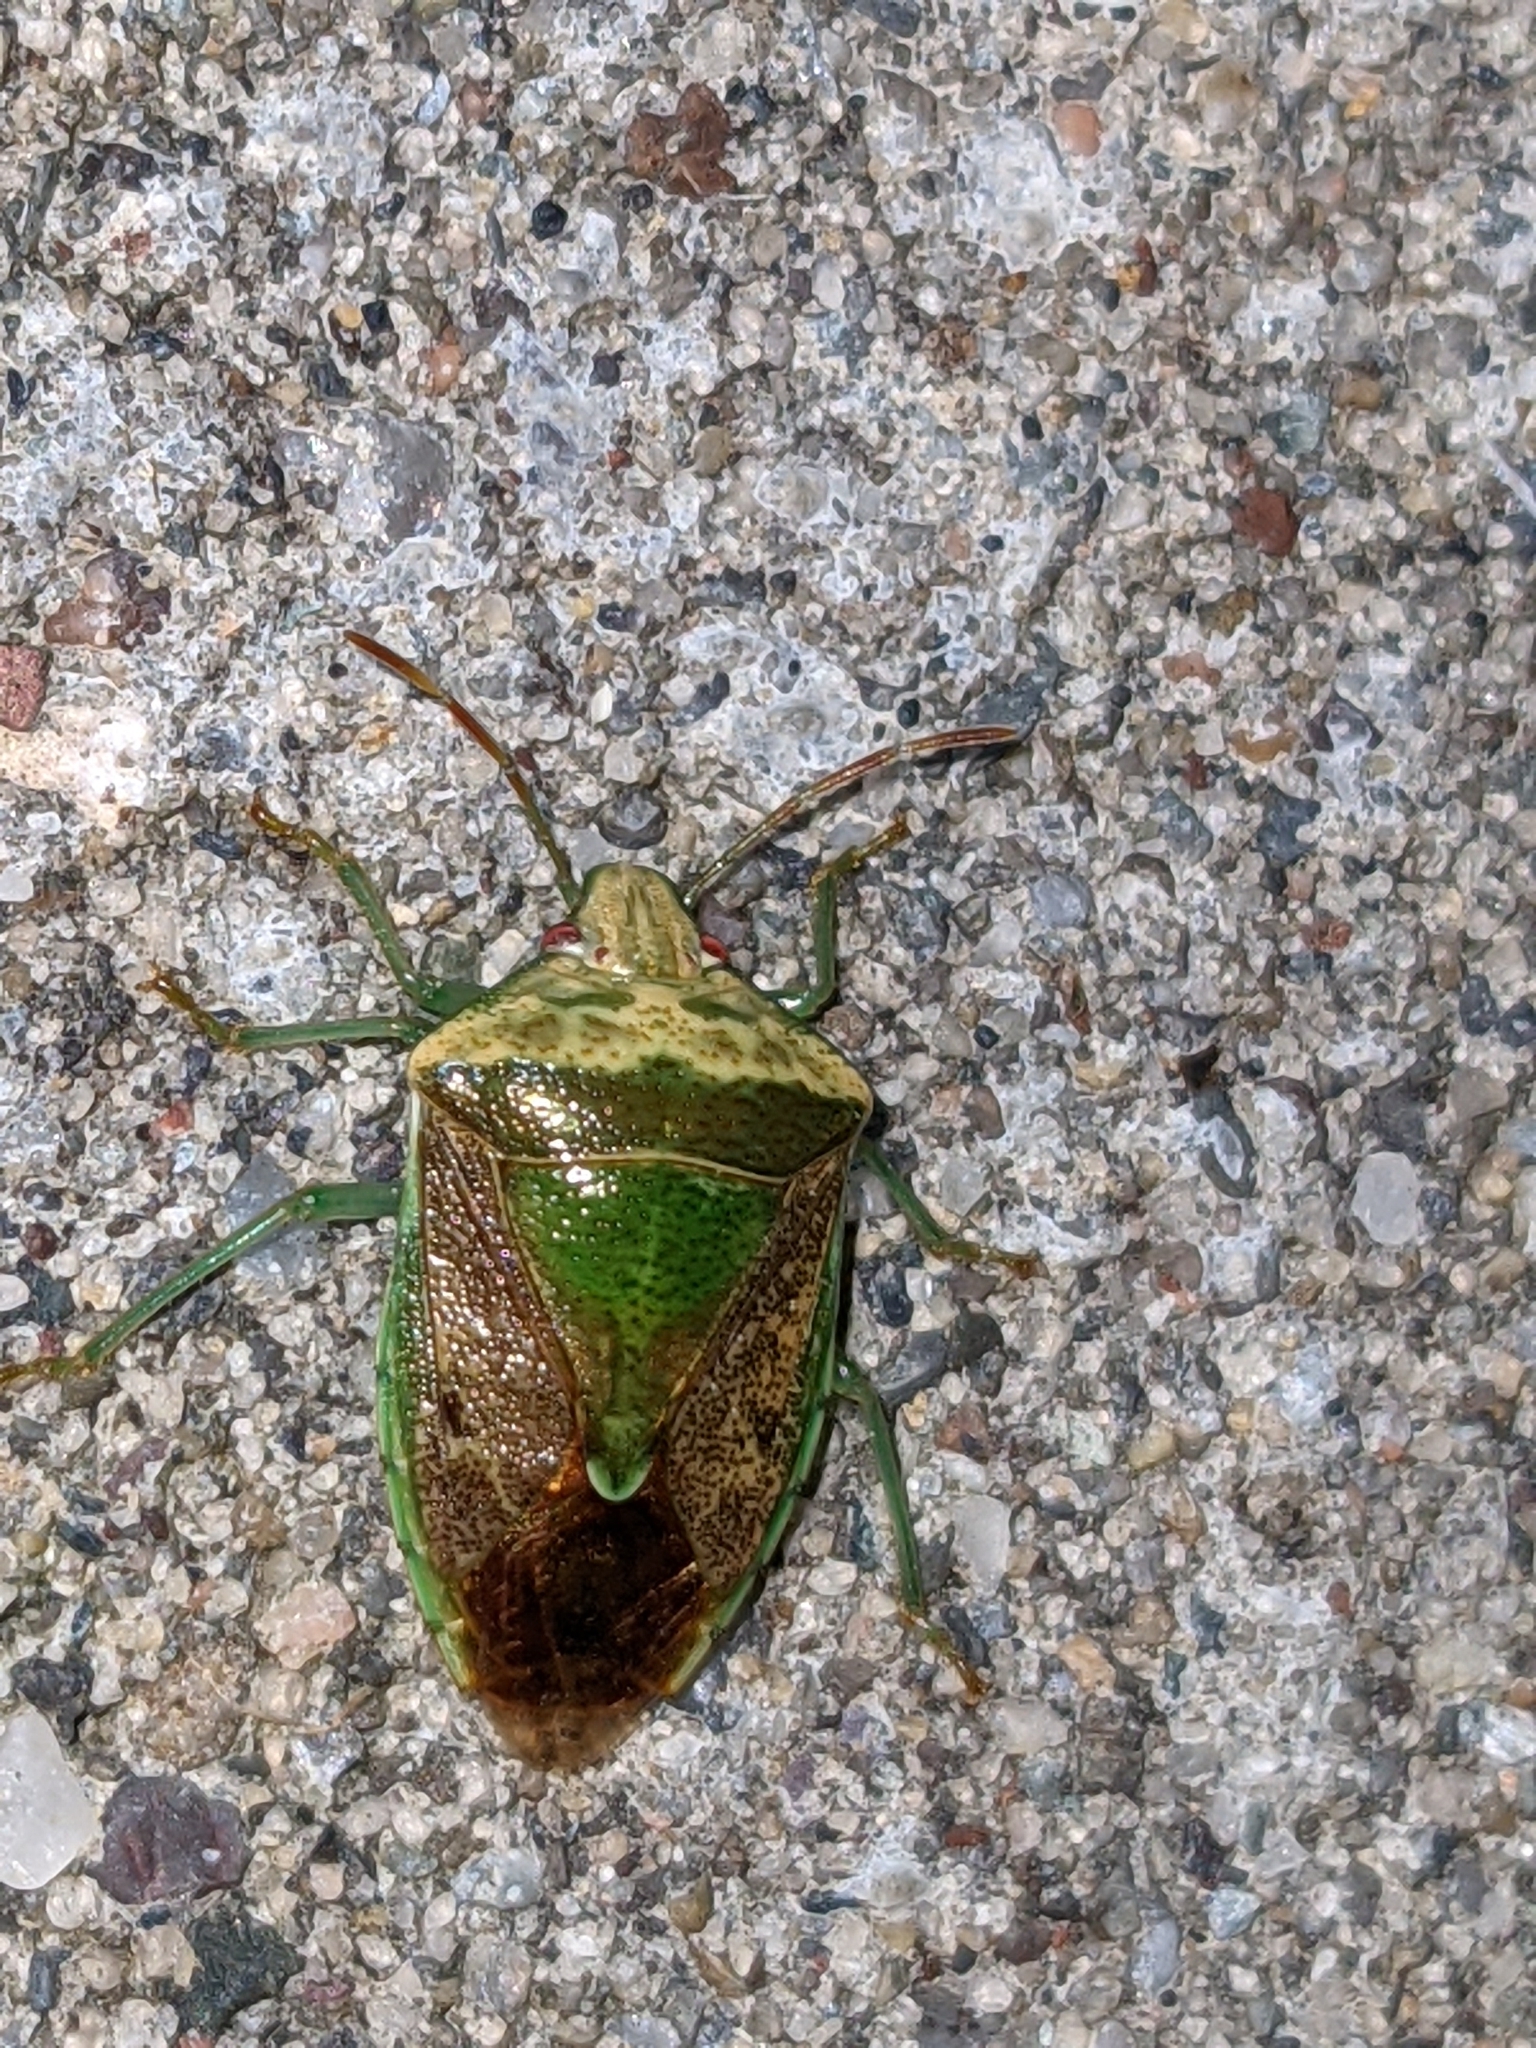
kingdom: Animalia
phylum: Arthropoda
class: Insecta
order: Hemiptera
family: Pentatomidae
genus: Banasa
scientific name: Banasa calva
